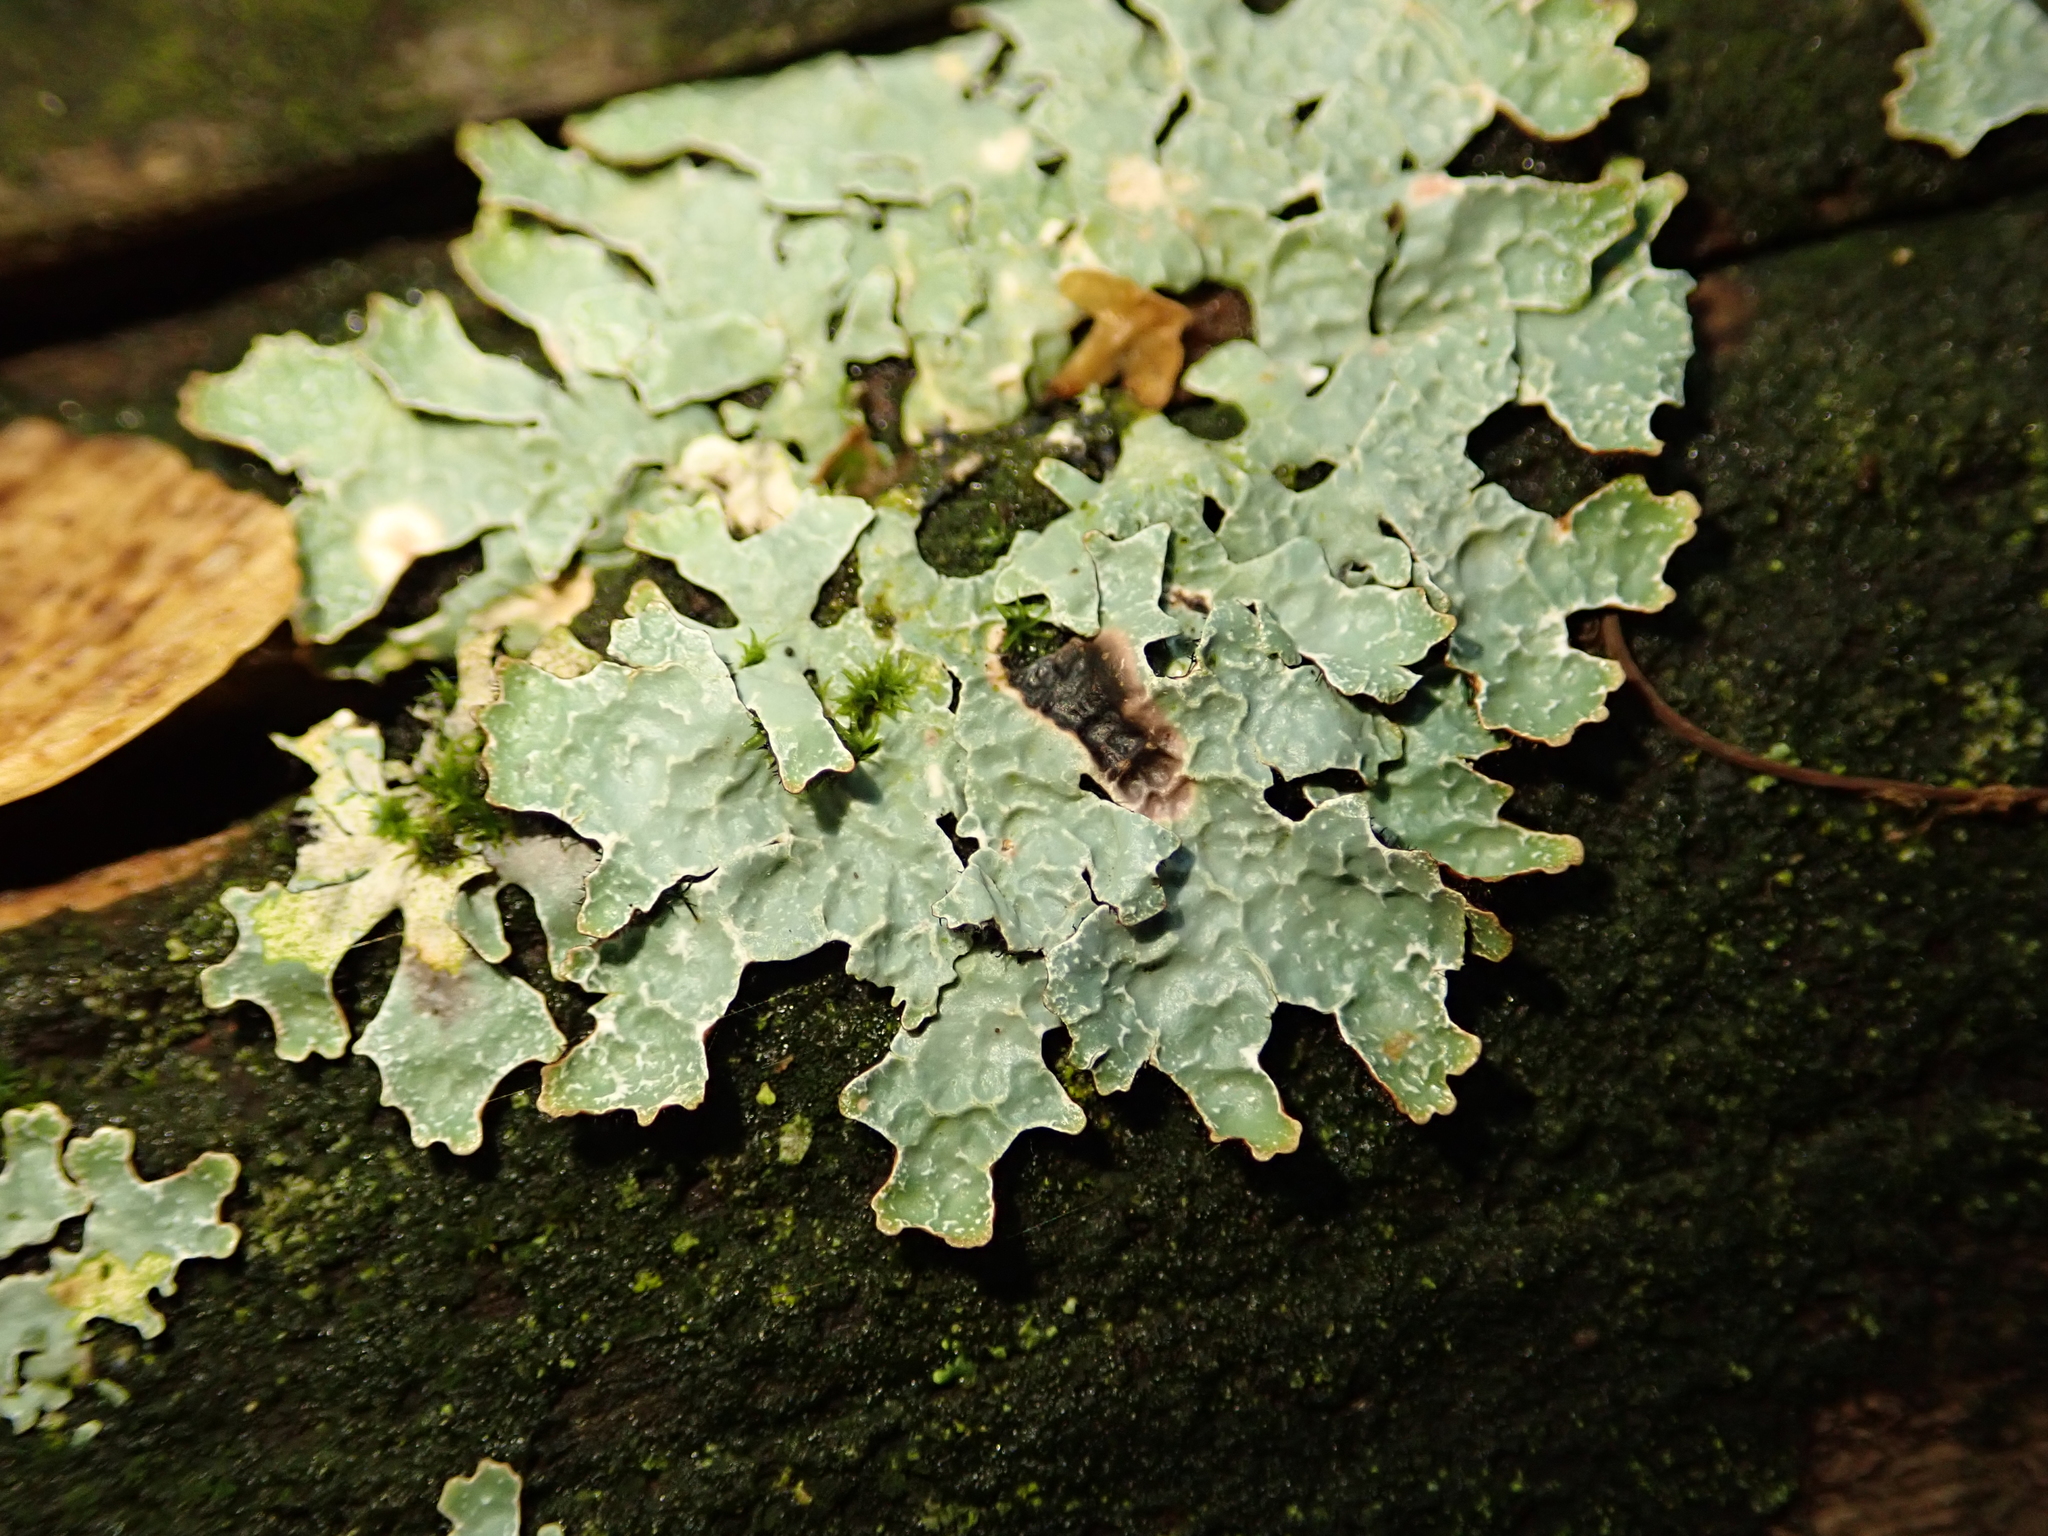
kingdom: Fungi
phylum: Ascomycota
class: Lecanoromycetes
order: Lecanorales
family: Parmeliaceae
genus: Parmelia
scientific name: Parmelia sulcata
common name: Netted shield lichen
